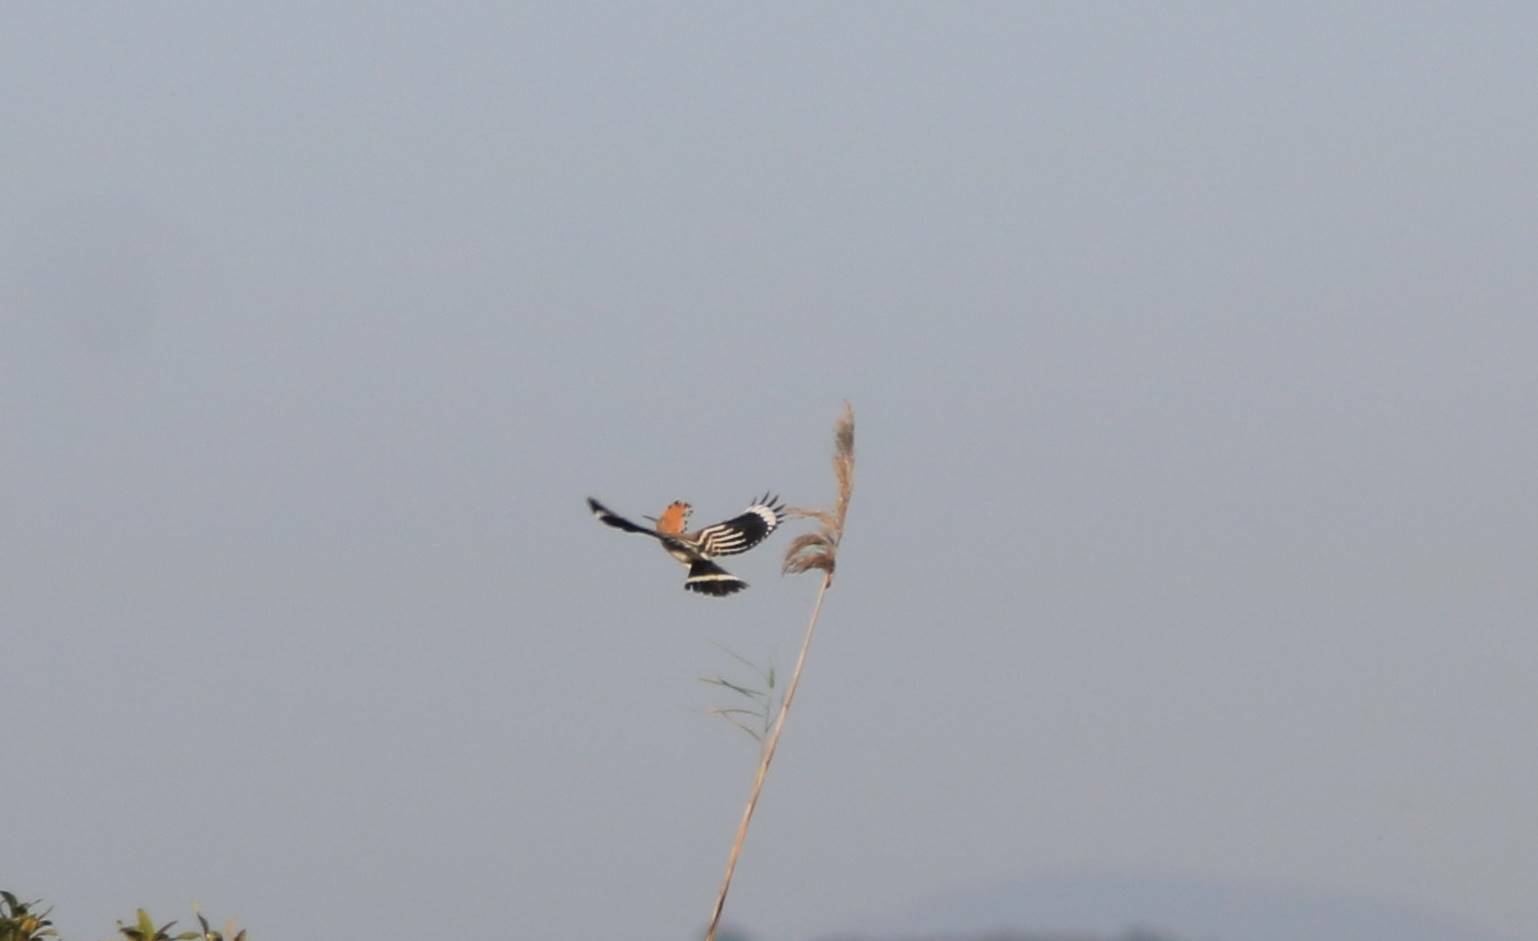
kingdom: Animalia
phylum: Chordata
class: Aves
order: Bucerotiformes
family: Upupidae
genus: Upupa
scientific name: Upupa epops
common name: Eurasian hoopoe
